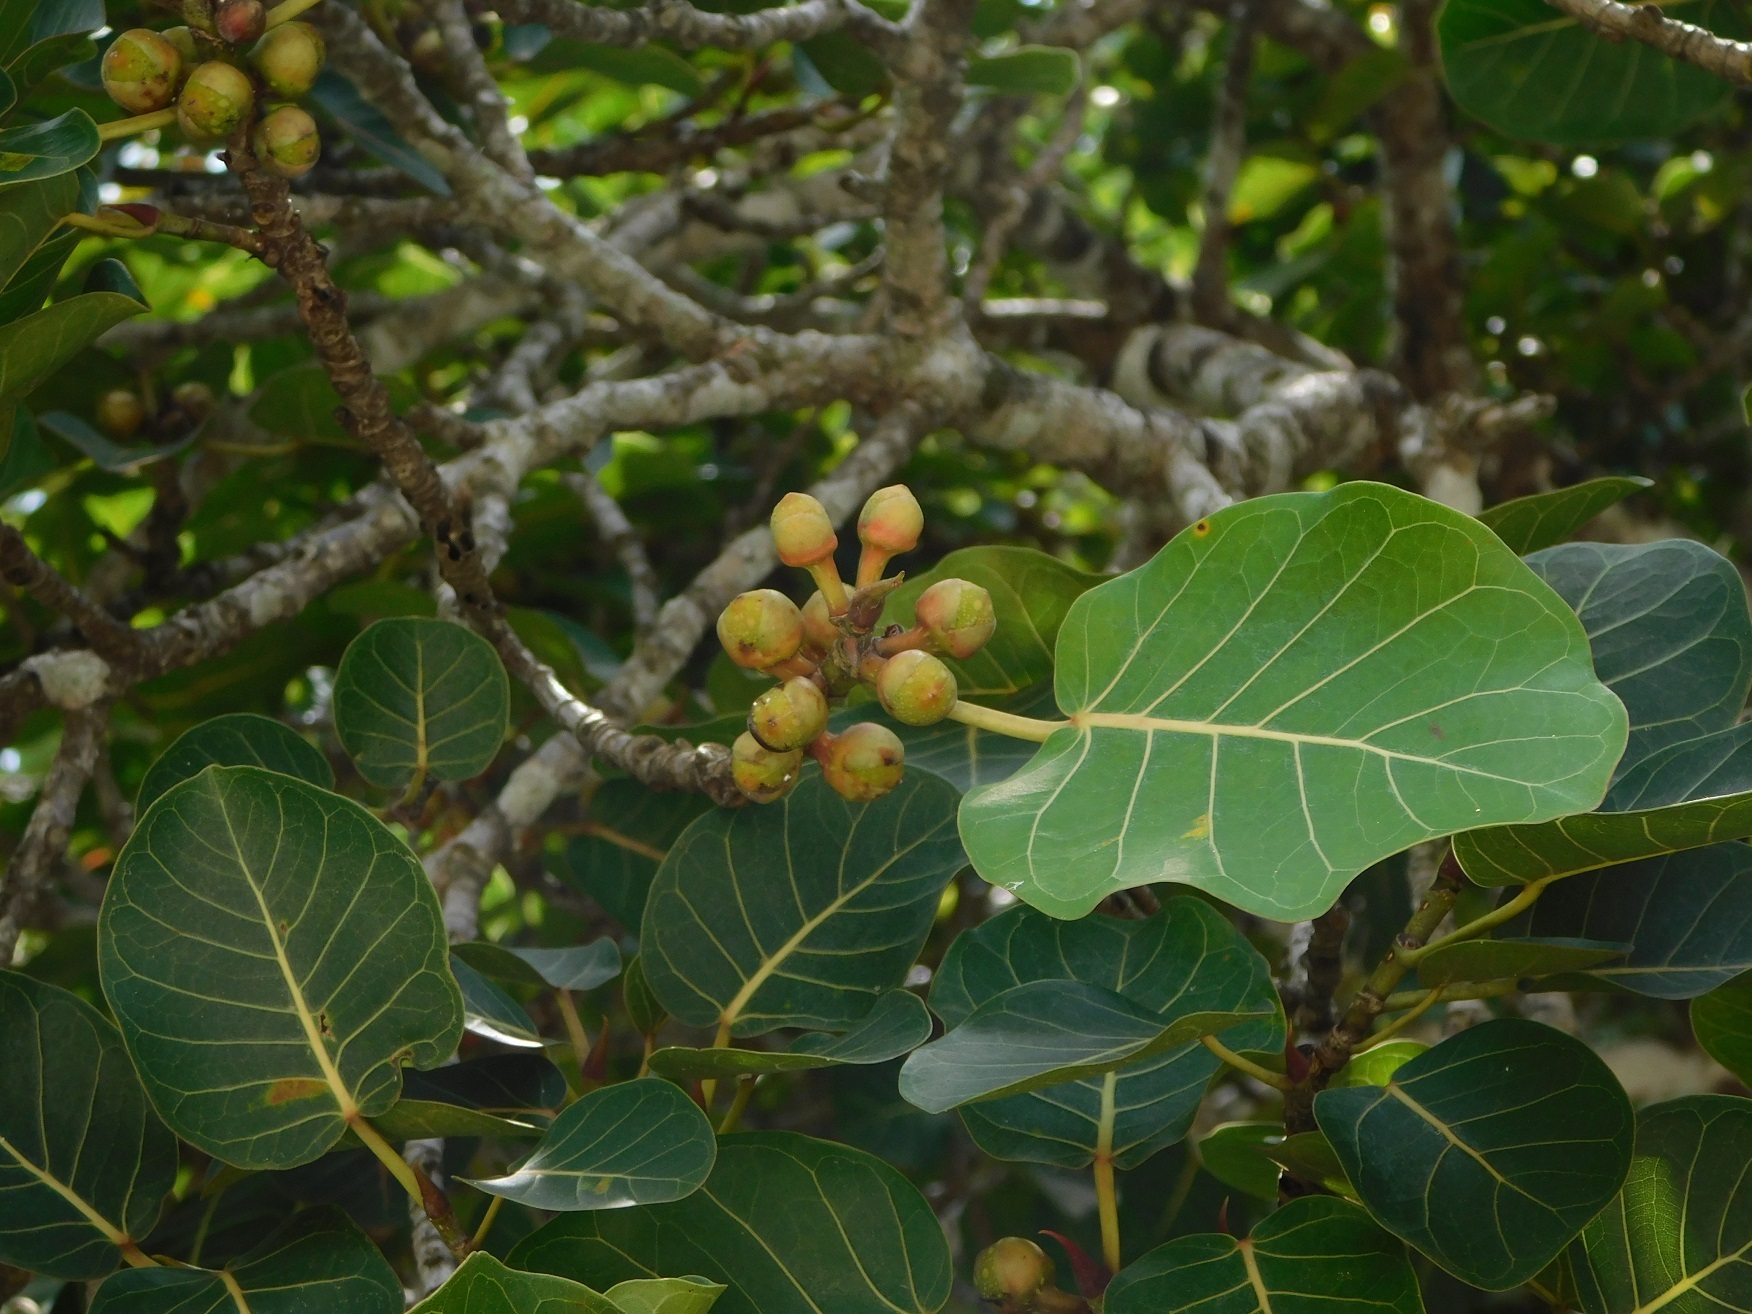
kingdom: Plantae
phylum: Tracheophyta
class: Magnoliopsida
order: Rosales
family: Moraceae
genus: Ficus
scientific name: Ficus aurea
